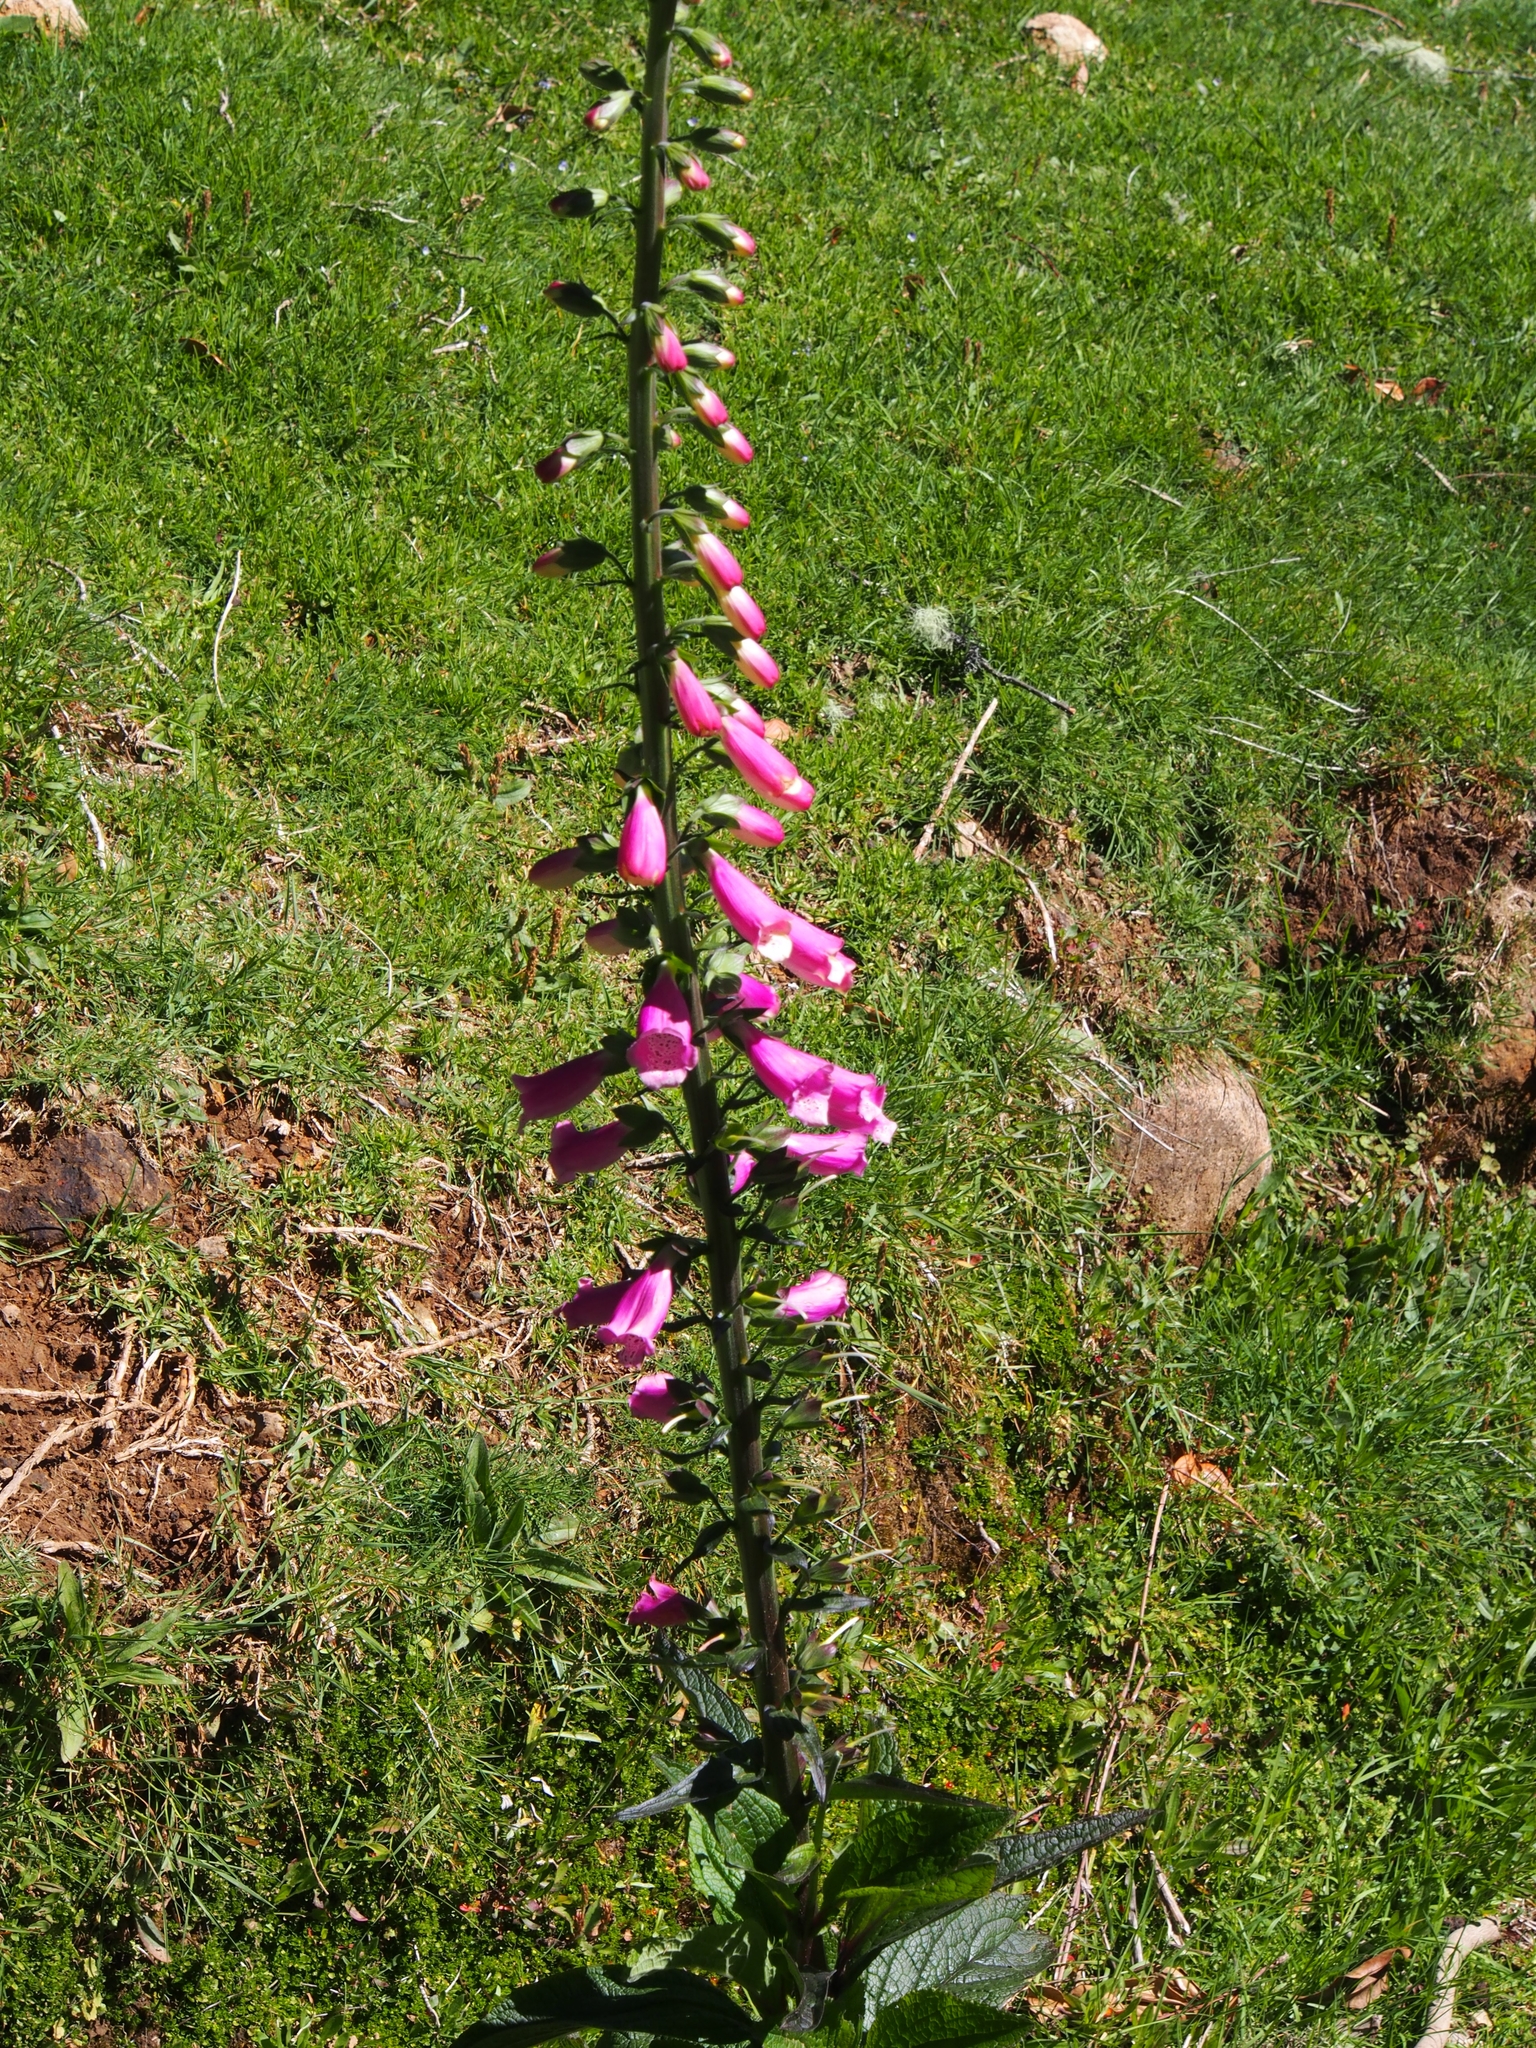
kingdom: Plantae
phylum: Tracheophyta
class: Magnoliopsida
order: Lamiales
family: Plantaginaceae
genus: Digitalis
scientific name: Digitalis purpurea
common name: Foxglove
